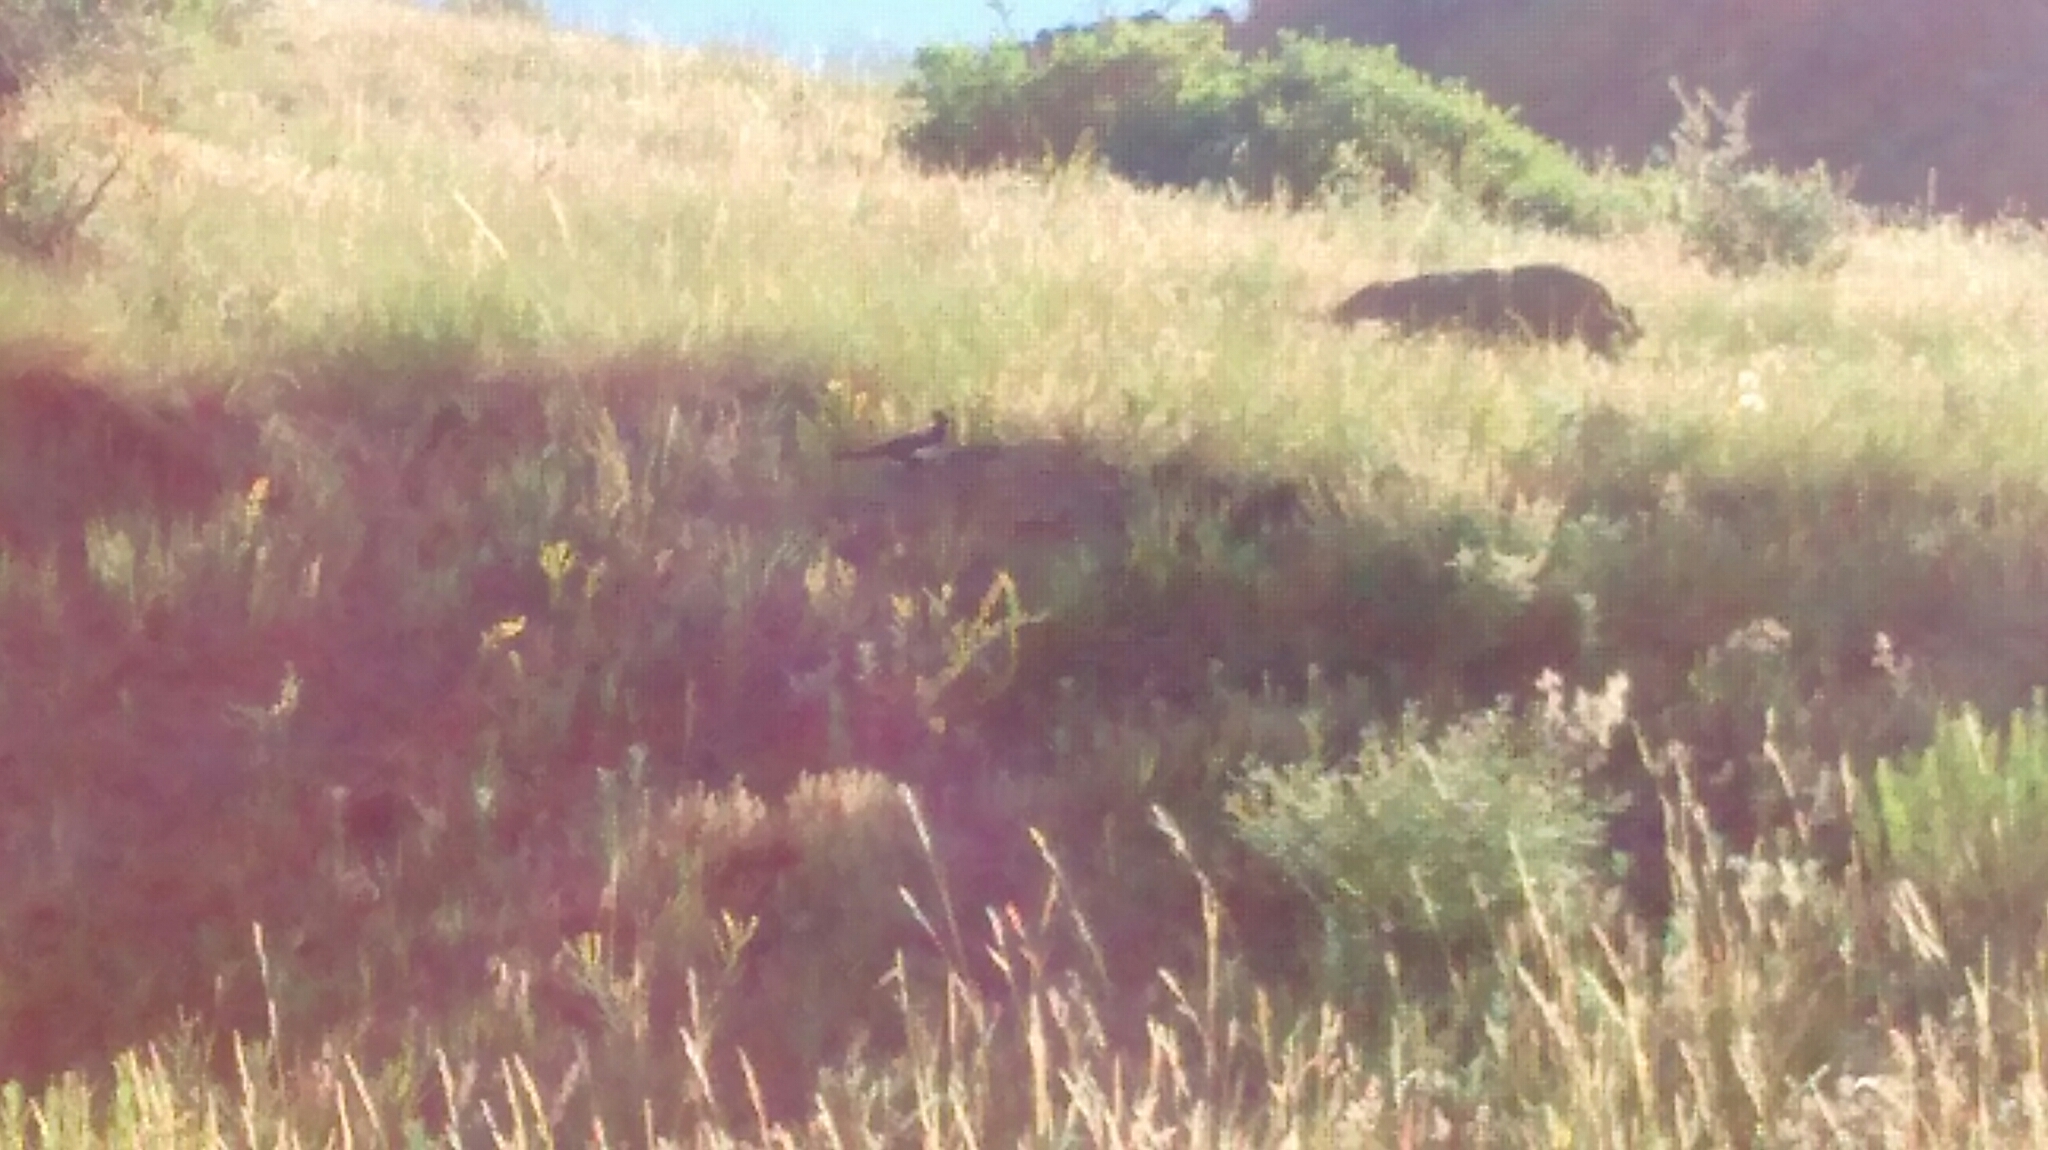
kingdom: Animalia
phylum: Chordata
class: Aves
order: Passeriformes
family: Corvidae
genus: Pica
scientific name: Pica hudsonia
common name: Black-billed magpie
